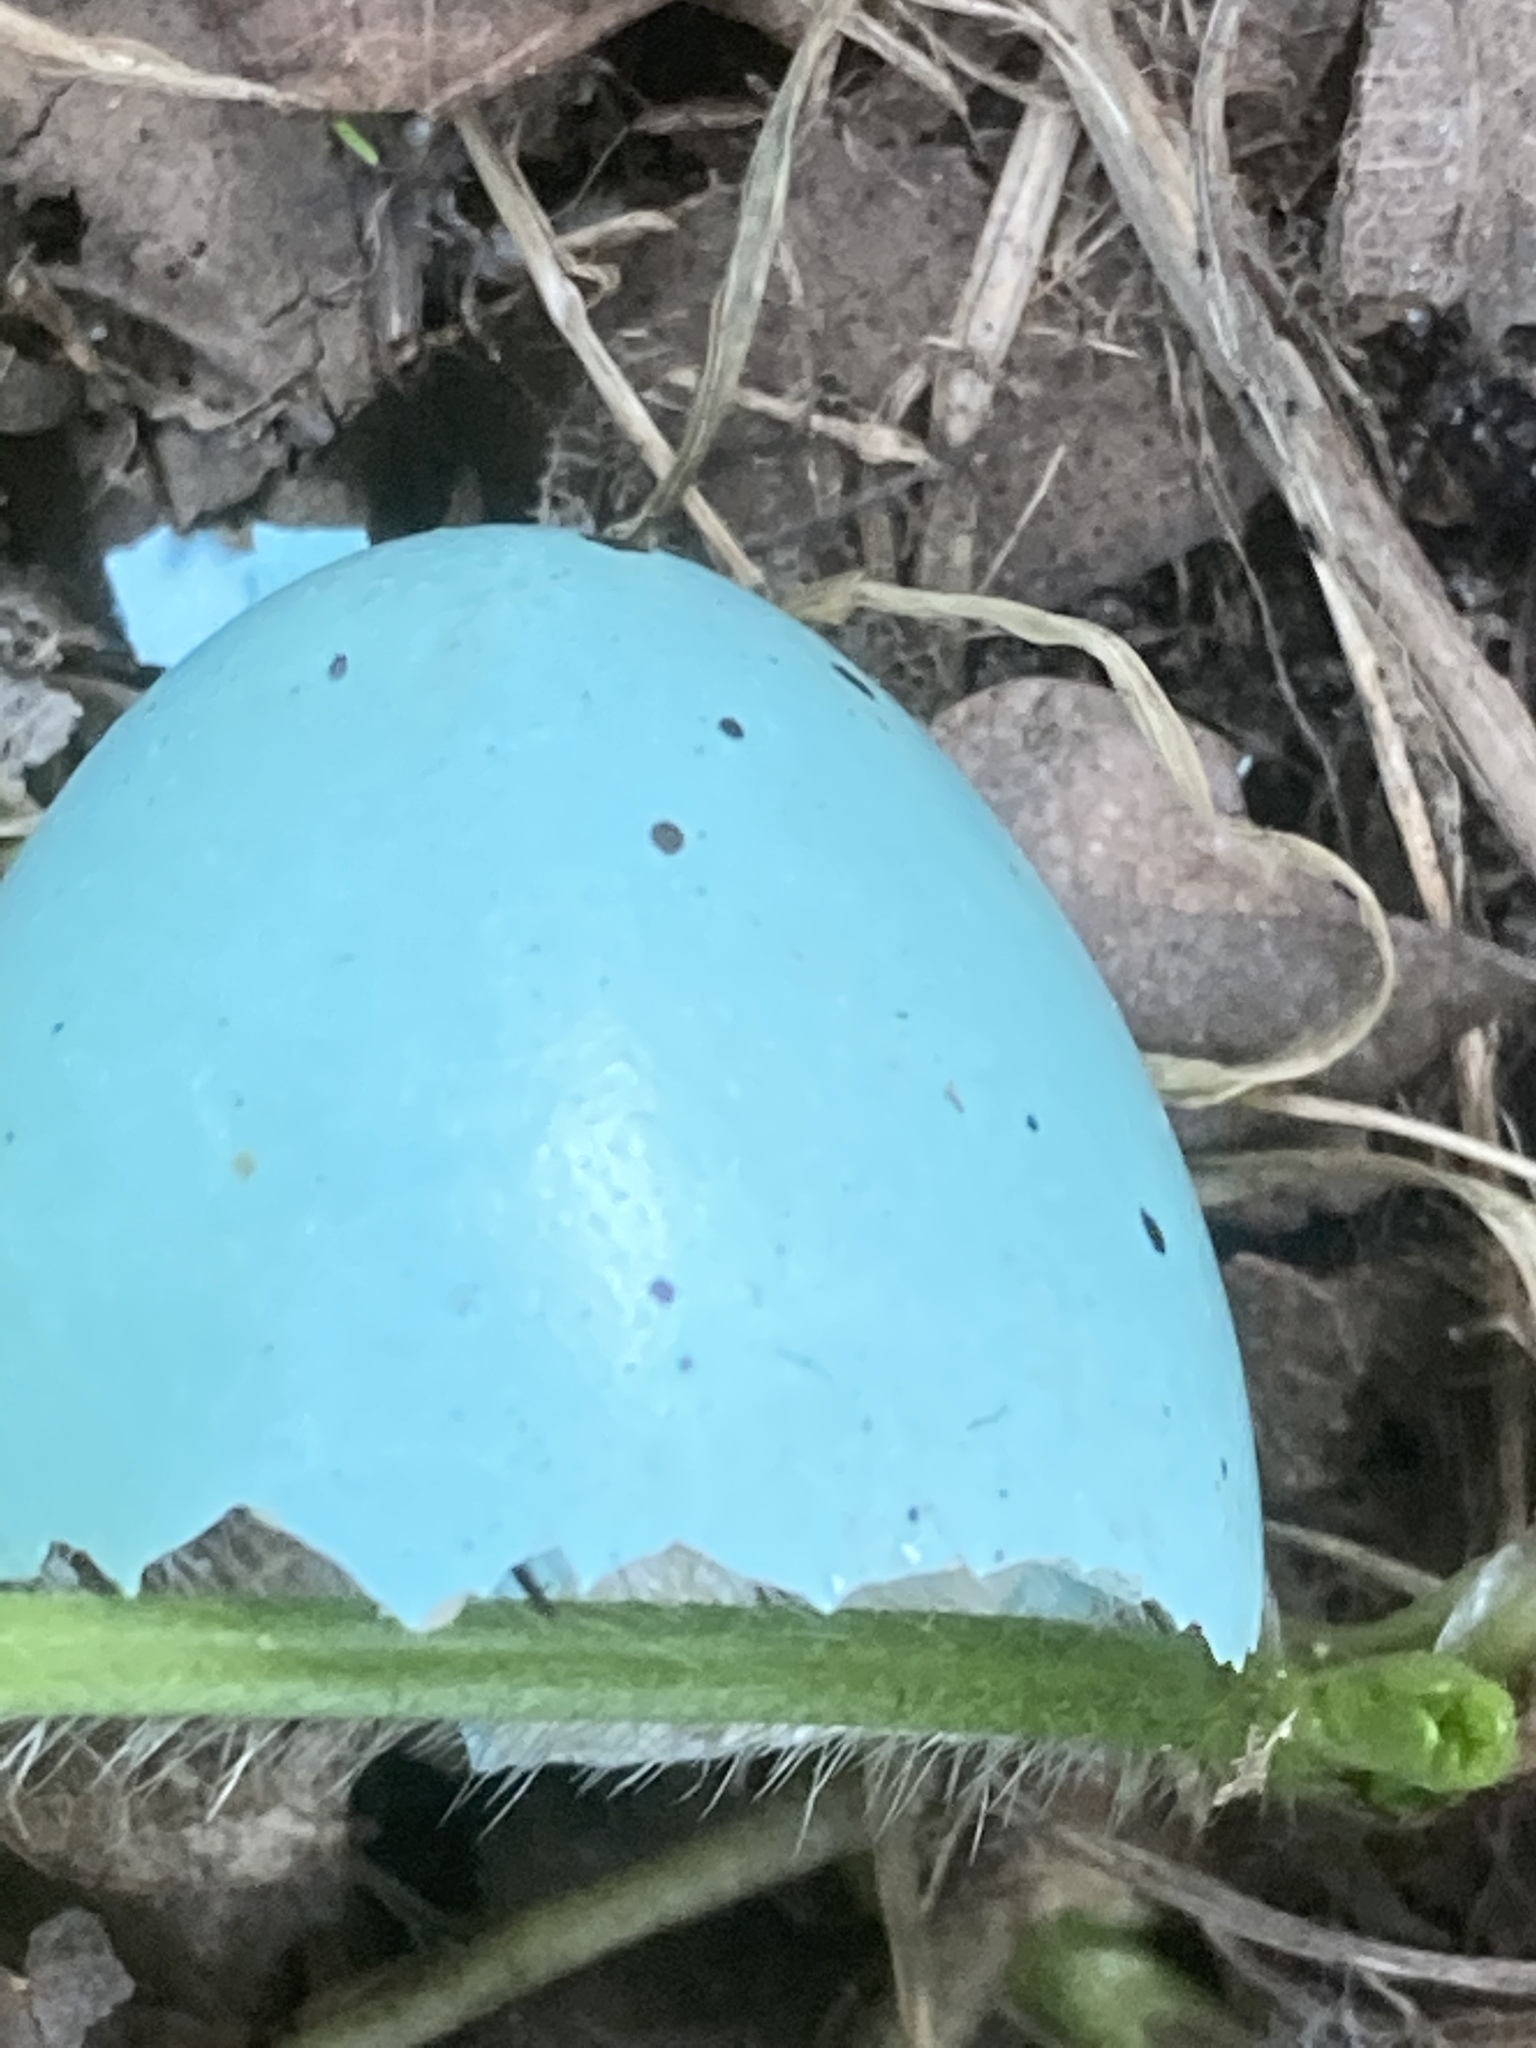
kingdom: Animalia
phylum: Chordata
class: Aves
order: Passeriformes
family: Turdidae
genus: Turdus
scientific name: Turdus philomelos
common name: Song thrush
